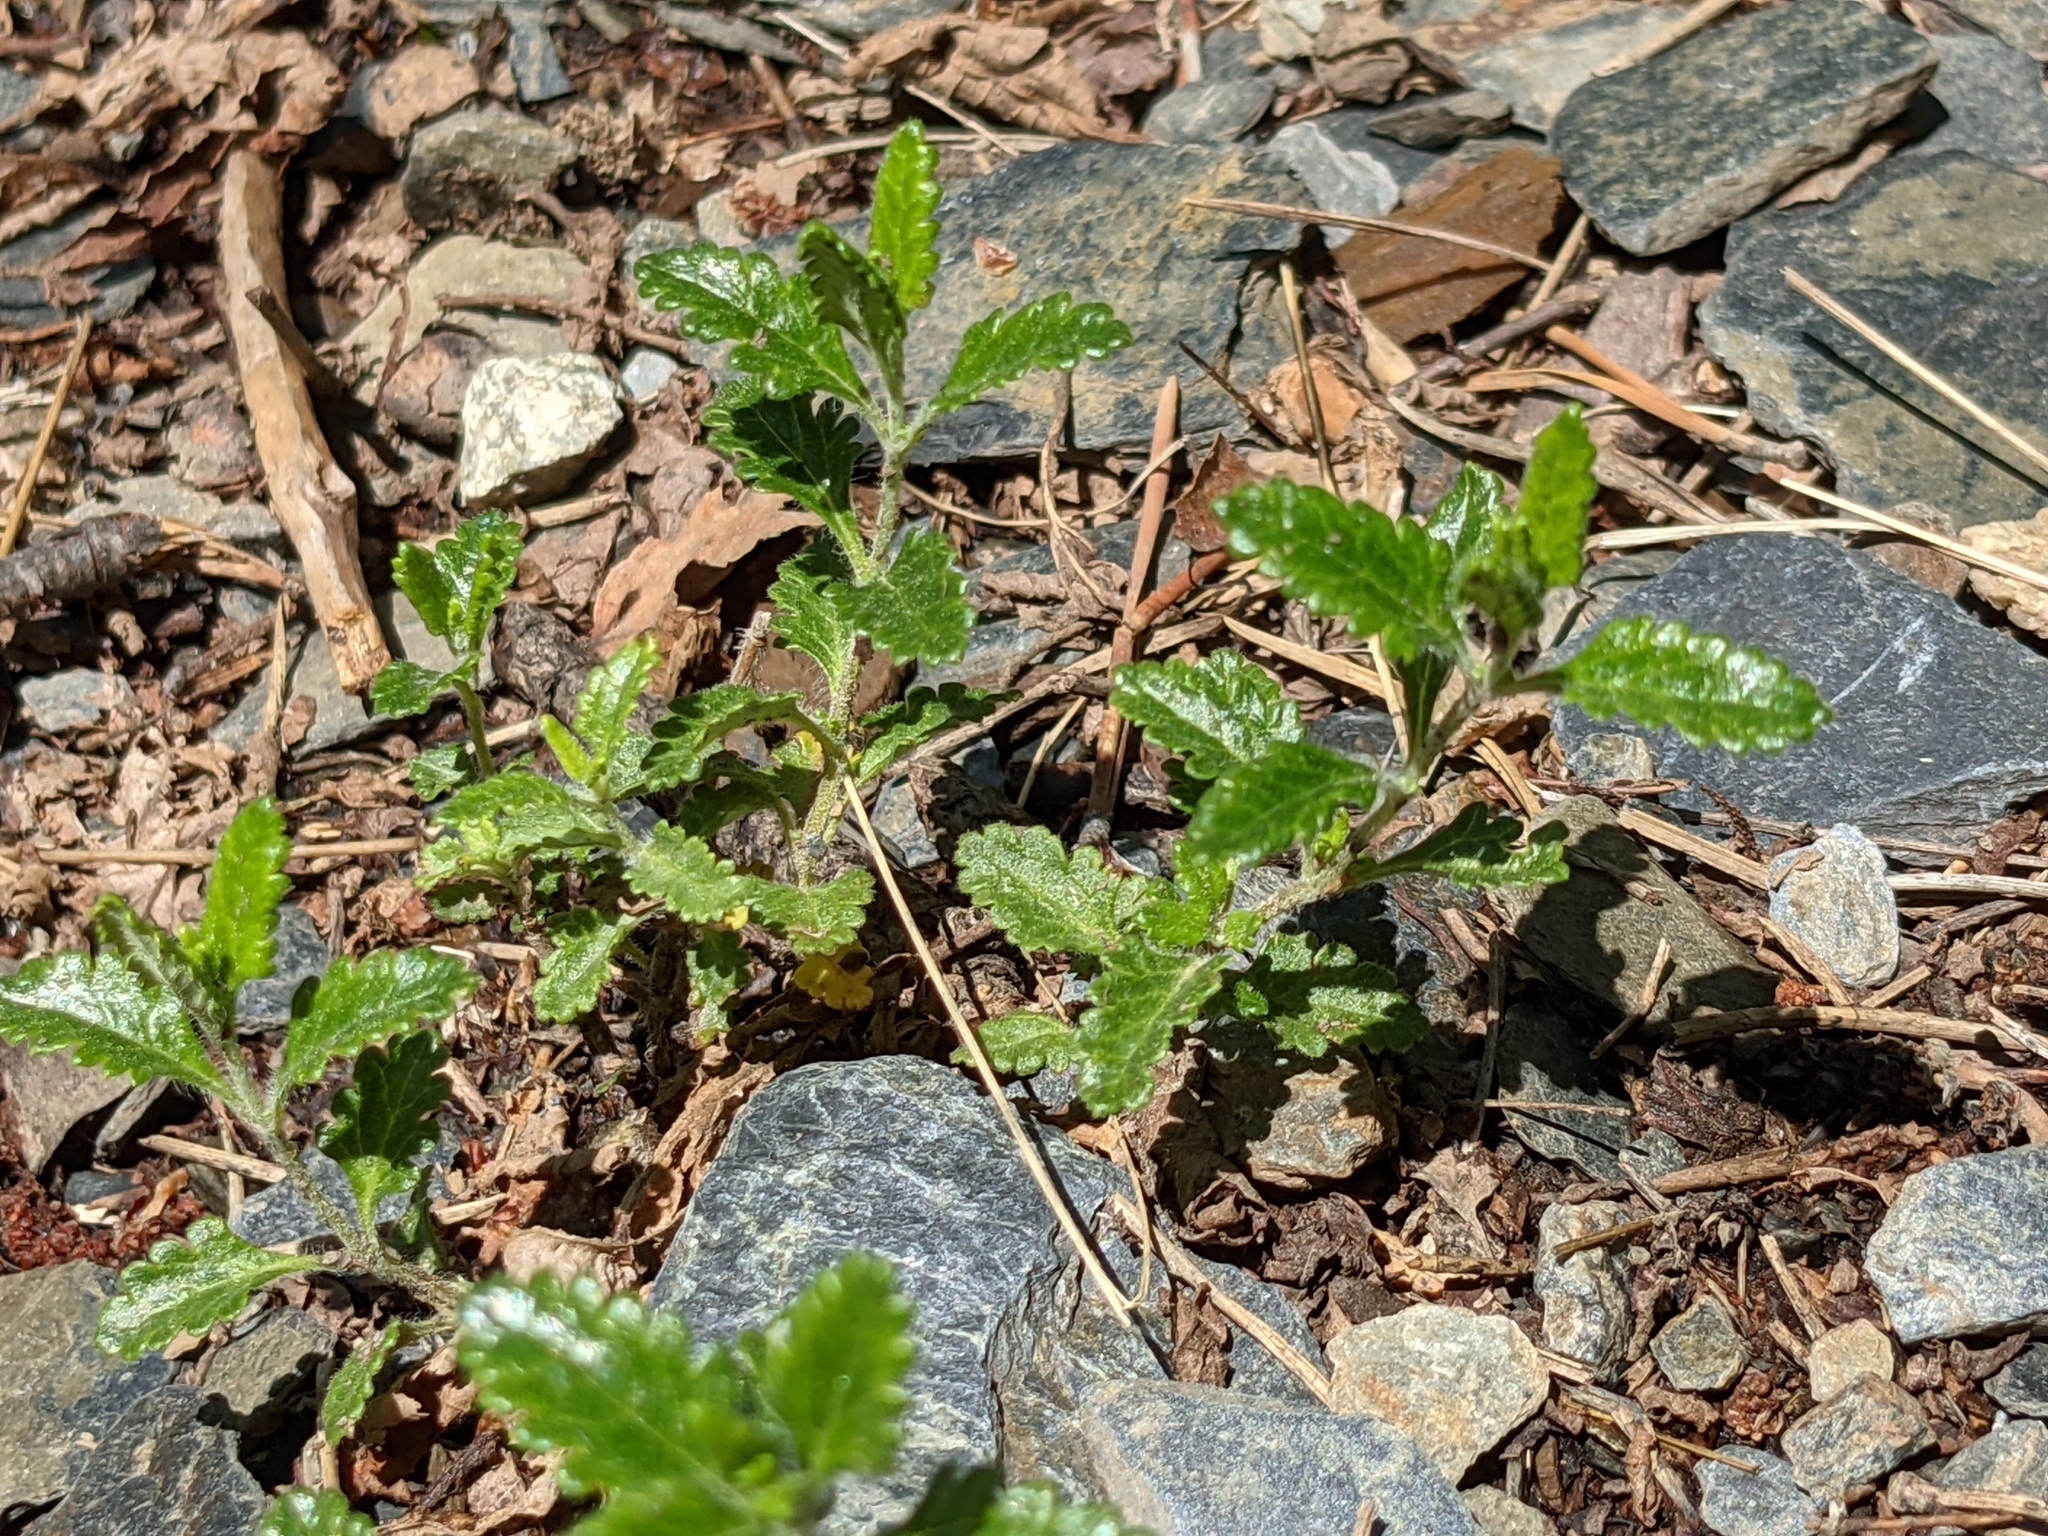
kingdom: Plantae
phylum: Tracheophyta
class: Magnoliopsida
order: Lamiales
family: Lamiaceae
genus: Teucrium
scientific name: Teucrium chamaedrys
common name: Wall germander
